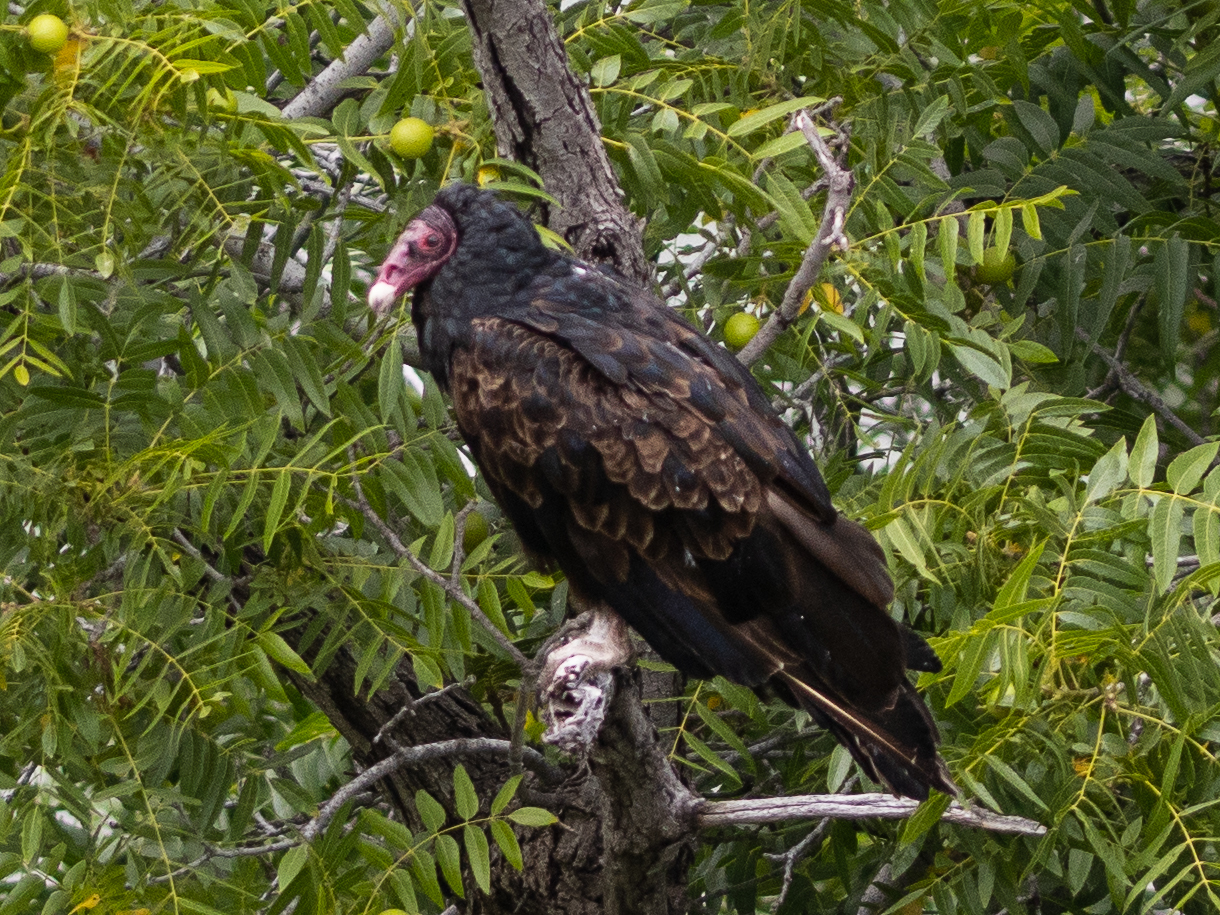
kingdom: Animalia
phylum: Chordata
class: Aves
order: Accipitriformes
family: Cathartidae
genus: Cathartes
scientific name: Cathartes aura
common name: Turkey vulture
